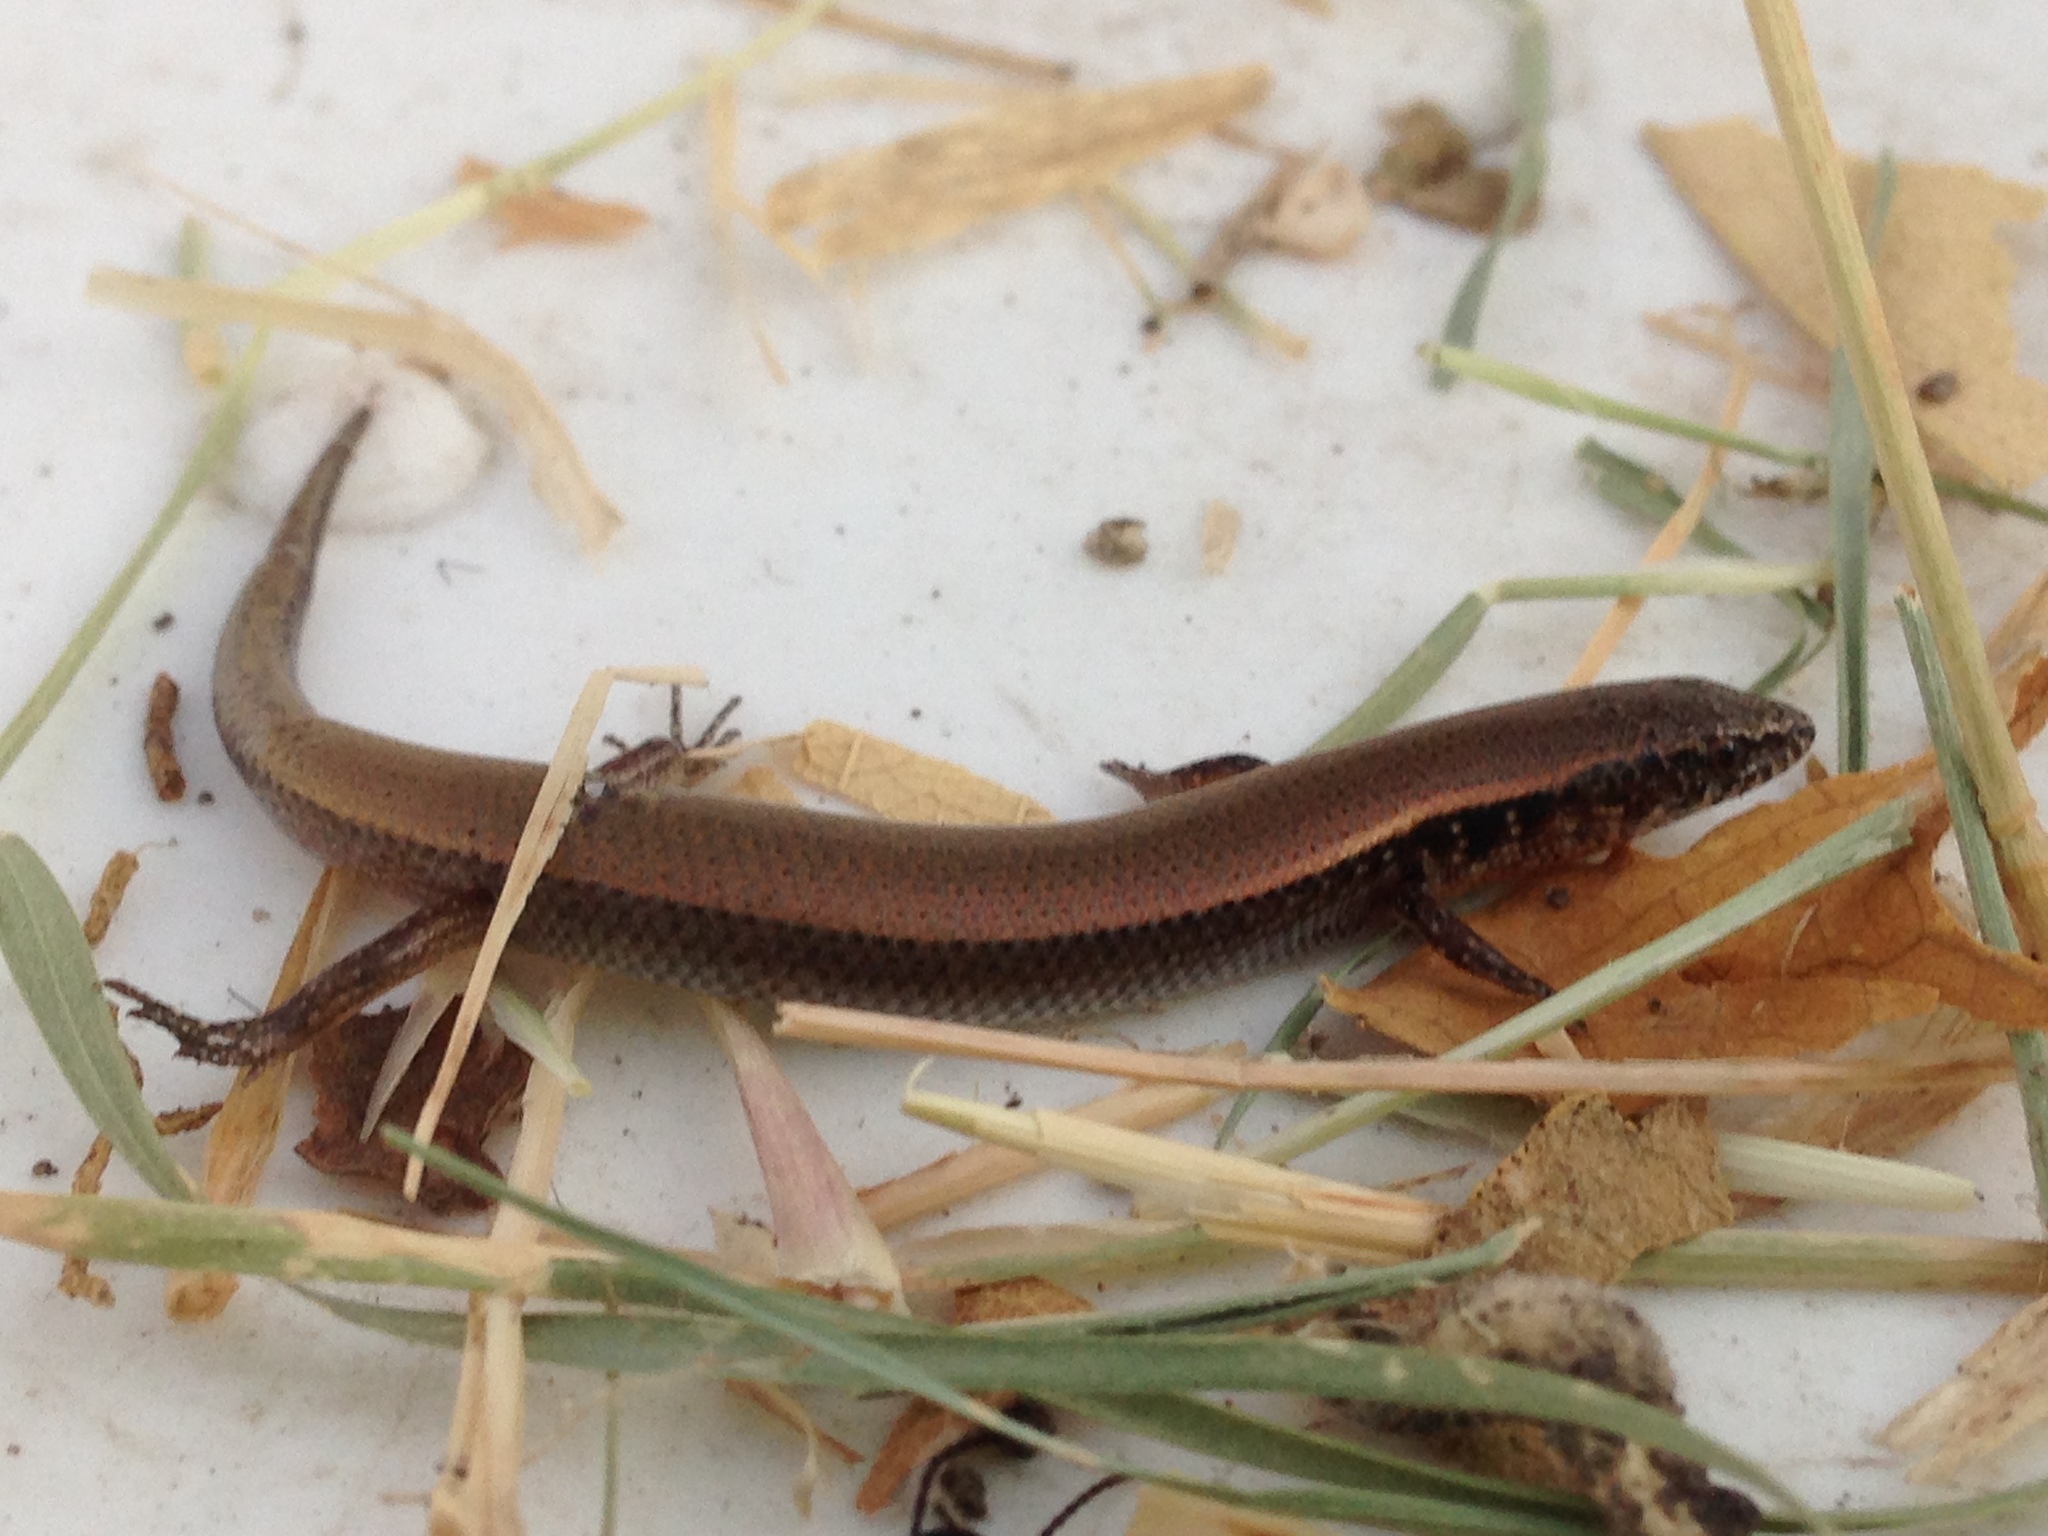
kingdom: Animalia
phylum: Chordata
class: Squamata
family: Scincidae
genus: Panaspis
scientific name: Panaspis maculicollis
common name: Spotted-neck snake-eyed skink
